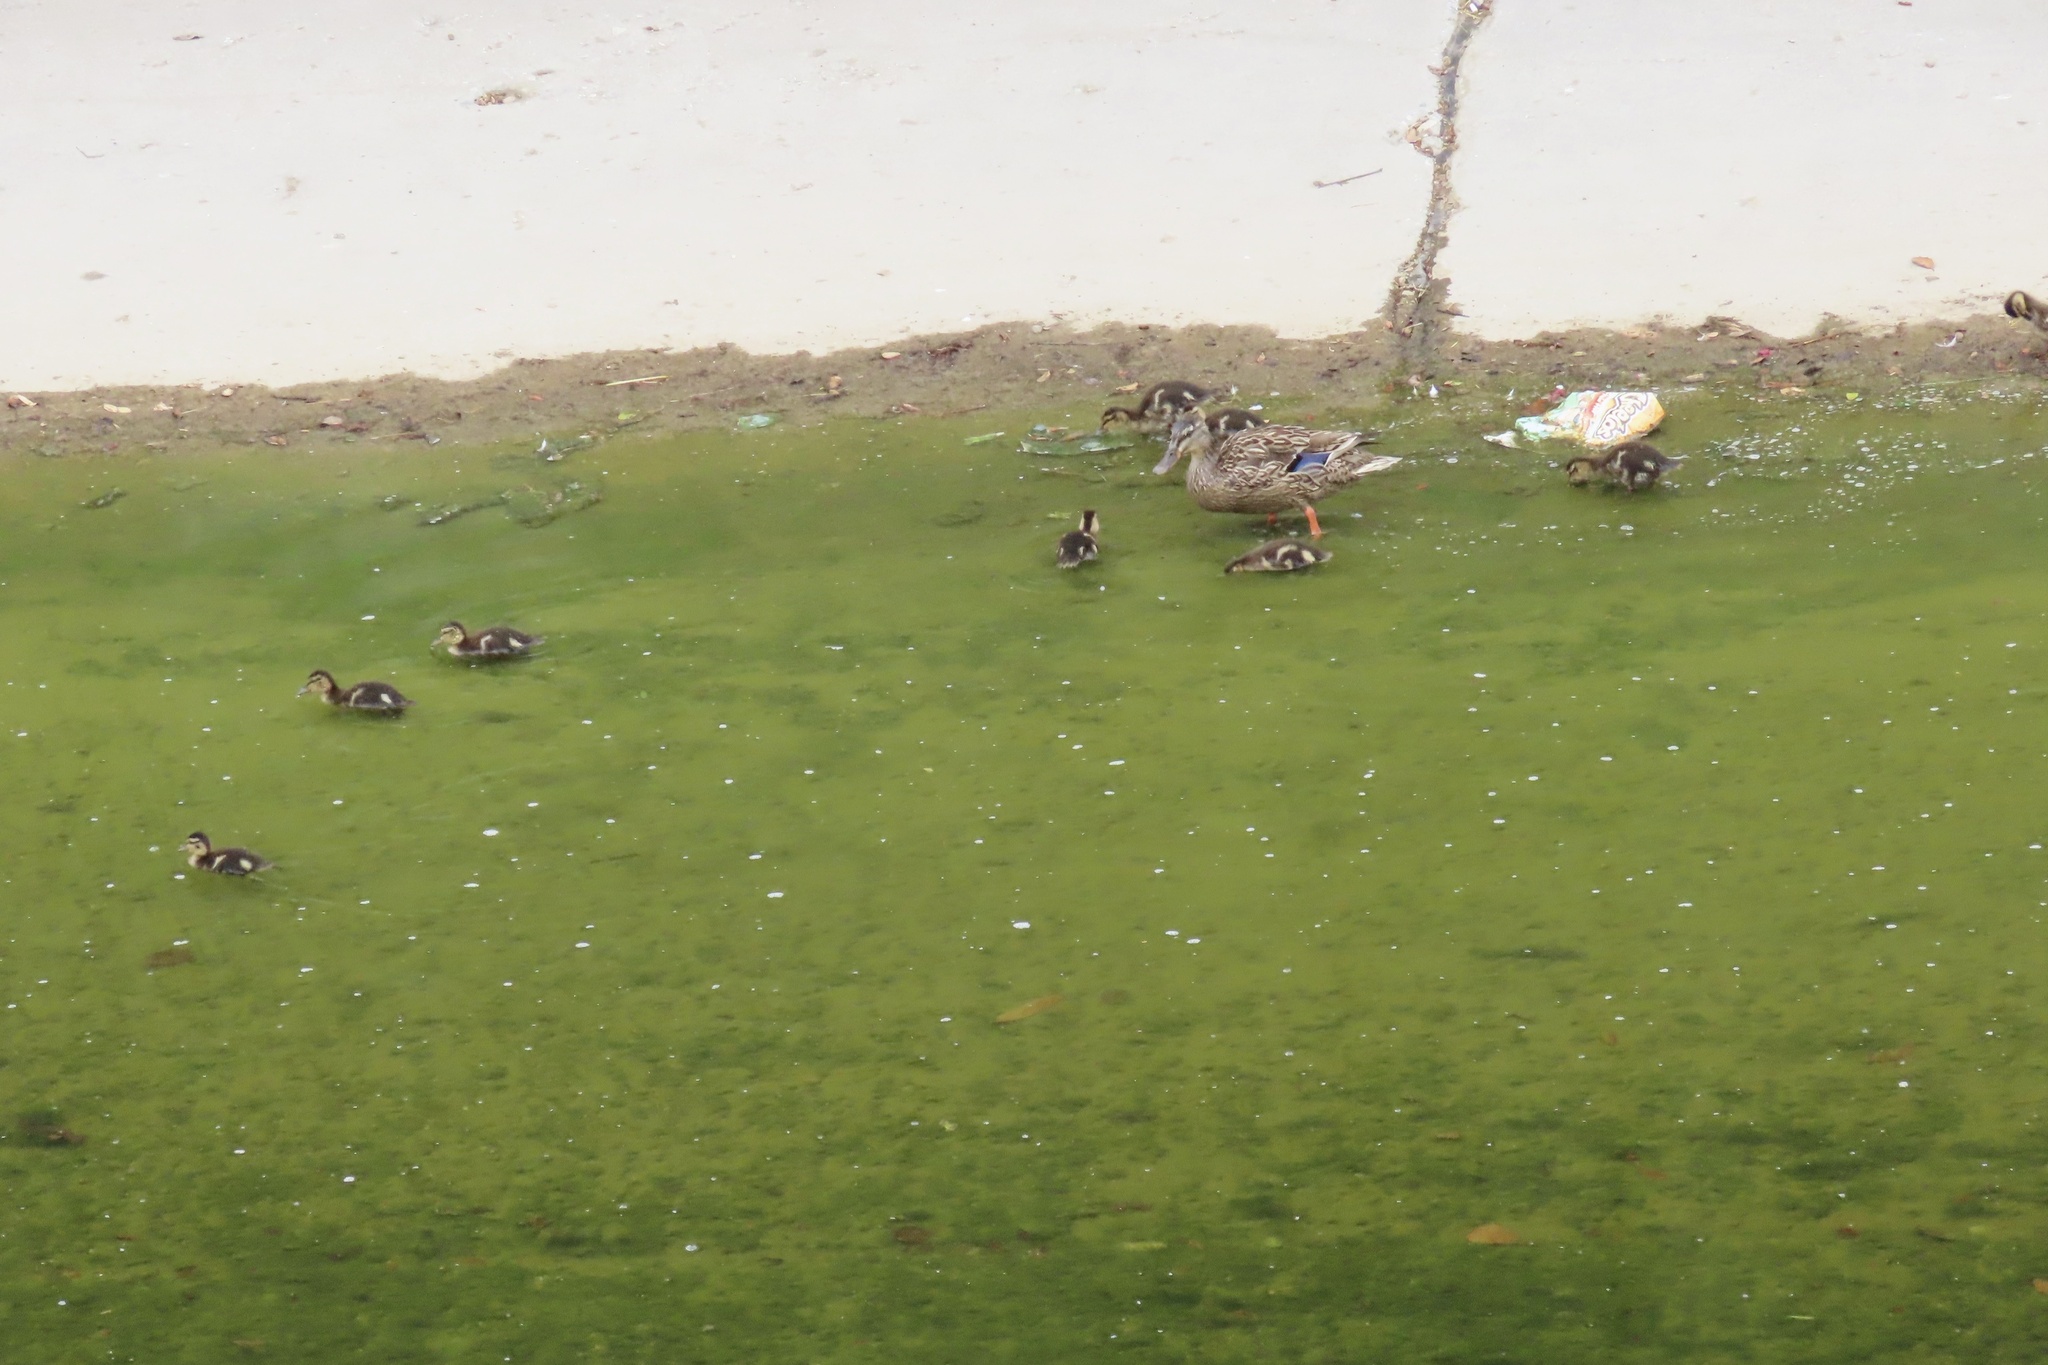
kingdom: Animalia
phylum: Chordata
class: Aves
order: Anseriformes
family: Anatidae
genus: Anas
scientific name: Anas platyrhynchos
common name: Mallard
